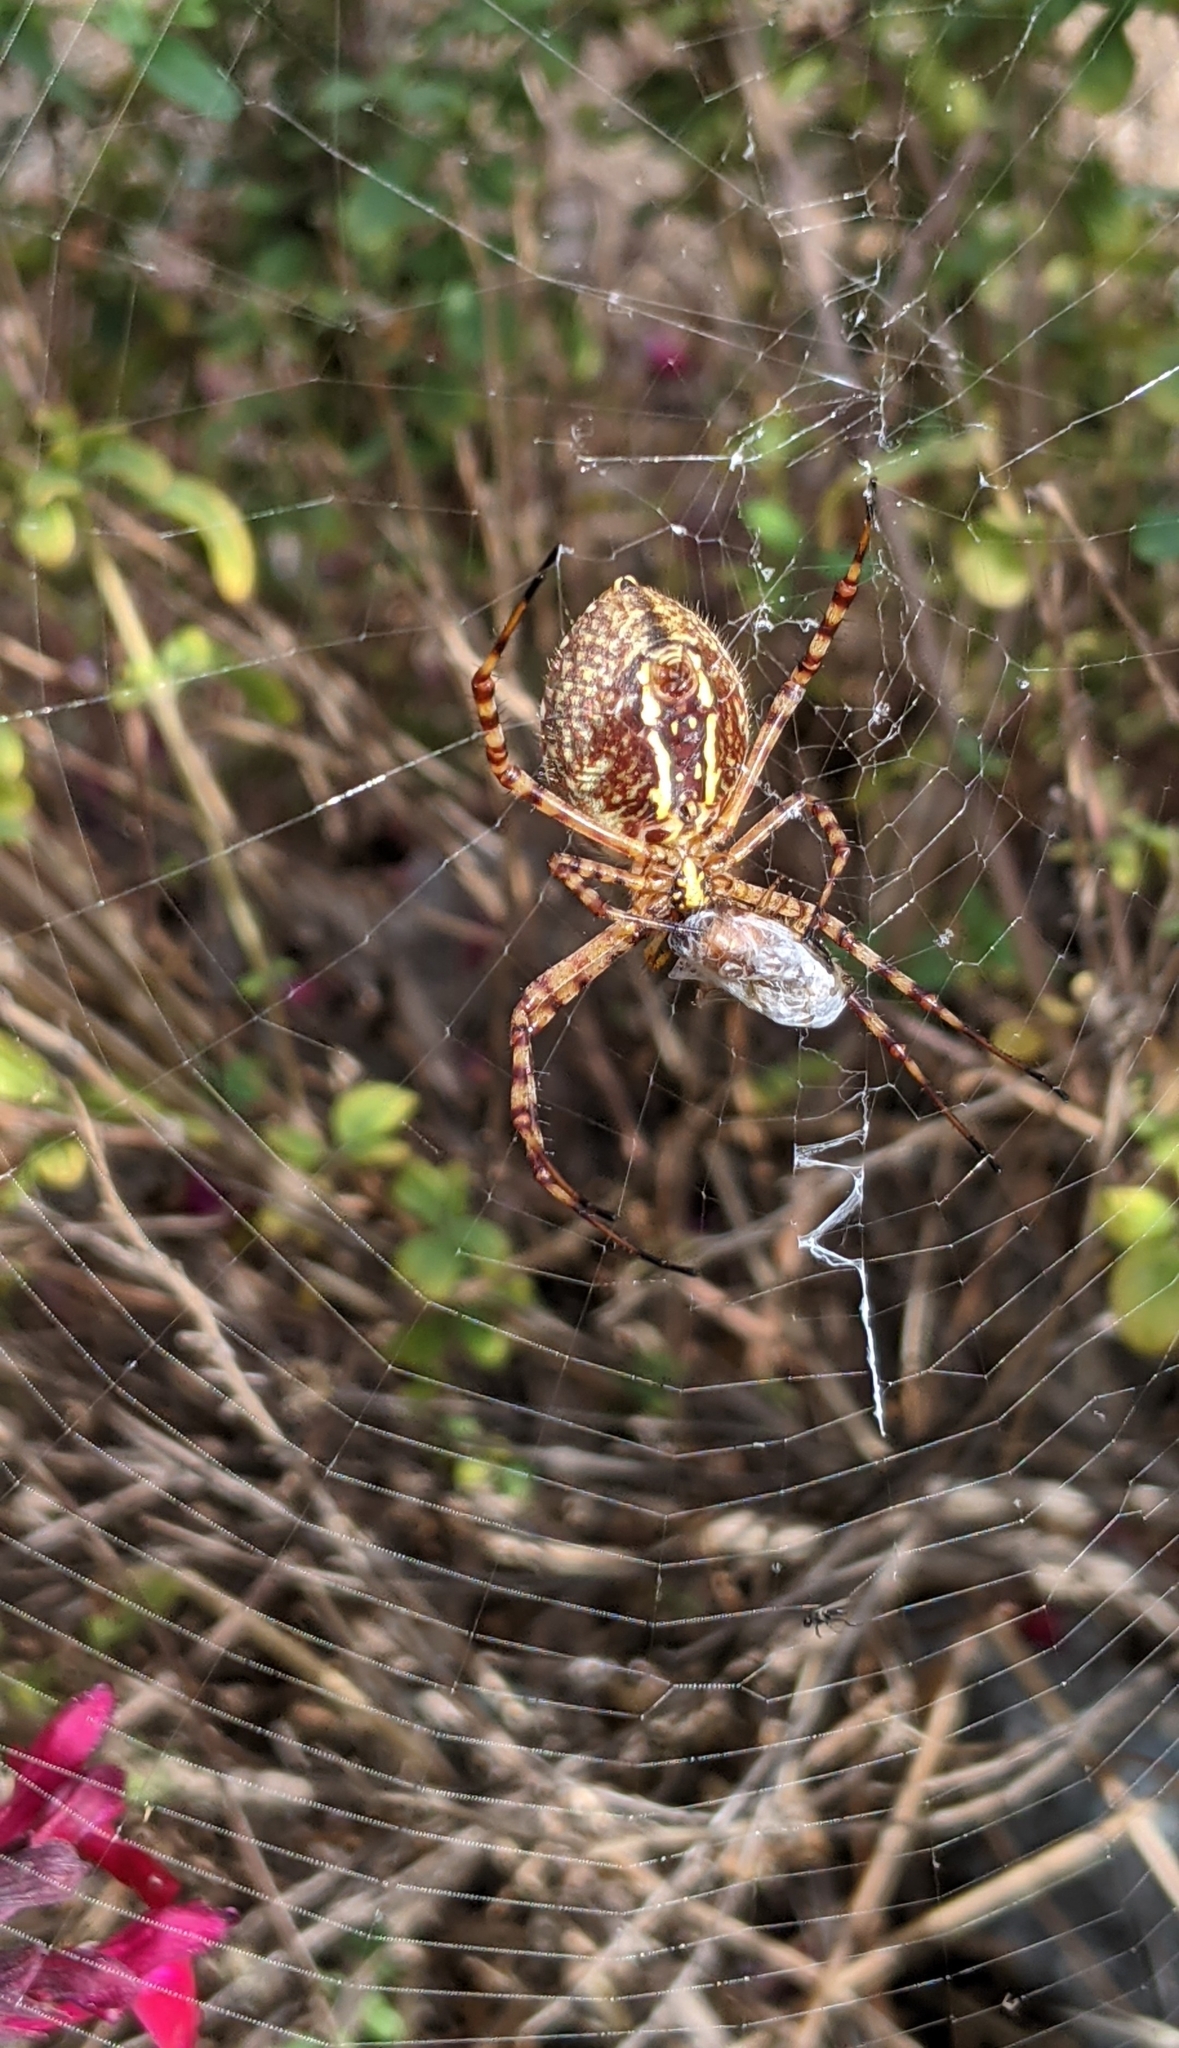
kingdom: Animalia
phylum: Arthropoda
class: Arachnida
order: Araneae
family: Araneidae
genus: Argiope
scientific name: Argiope trifasciata
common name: Banded garden spider
